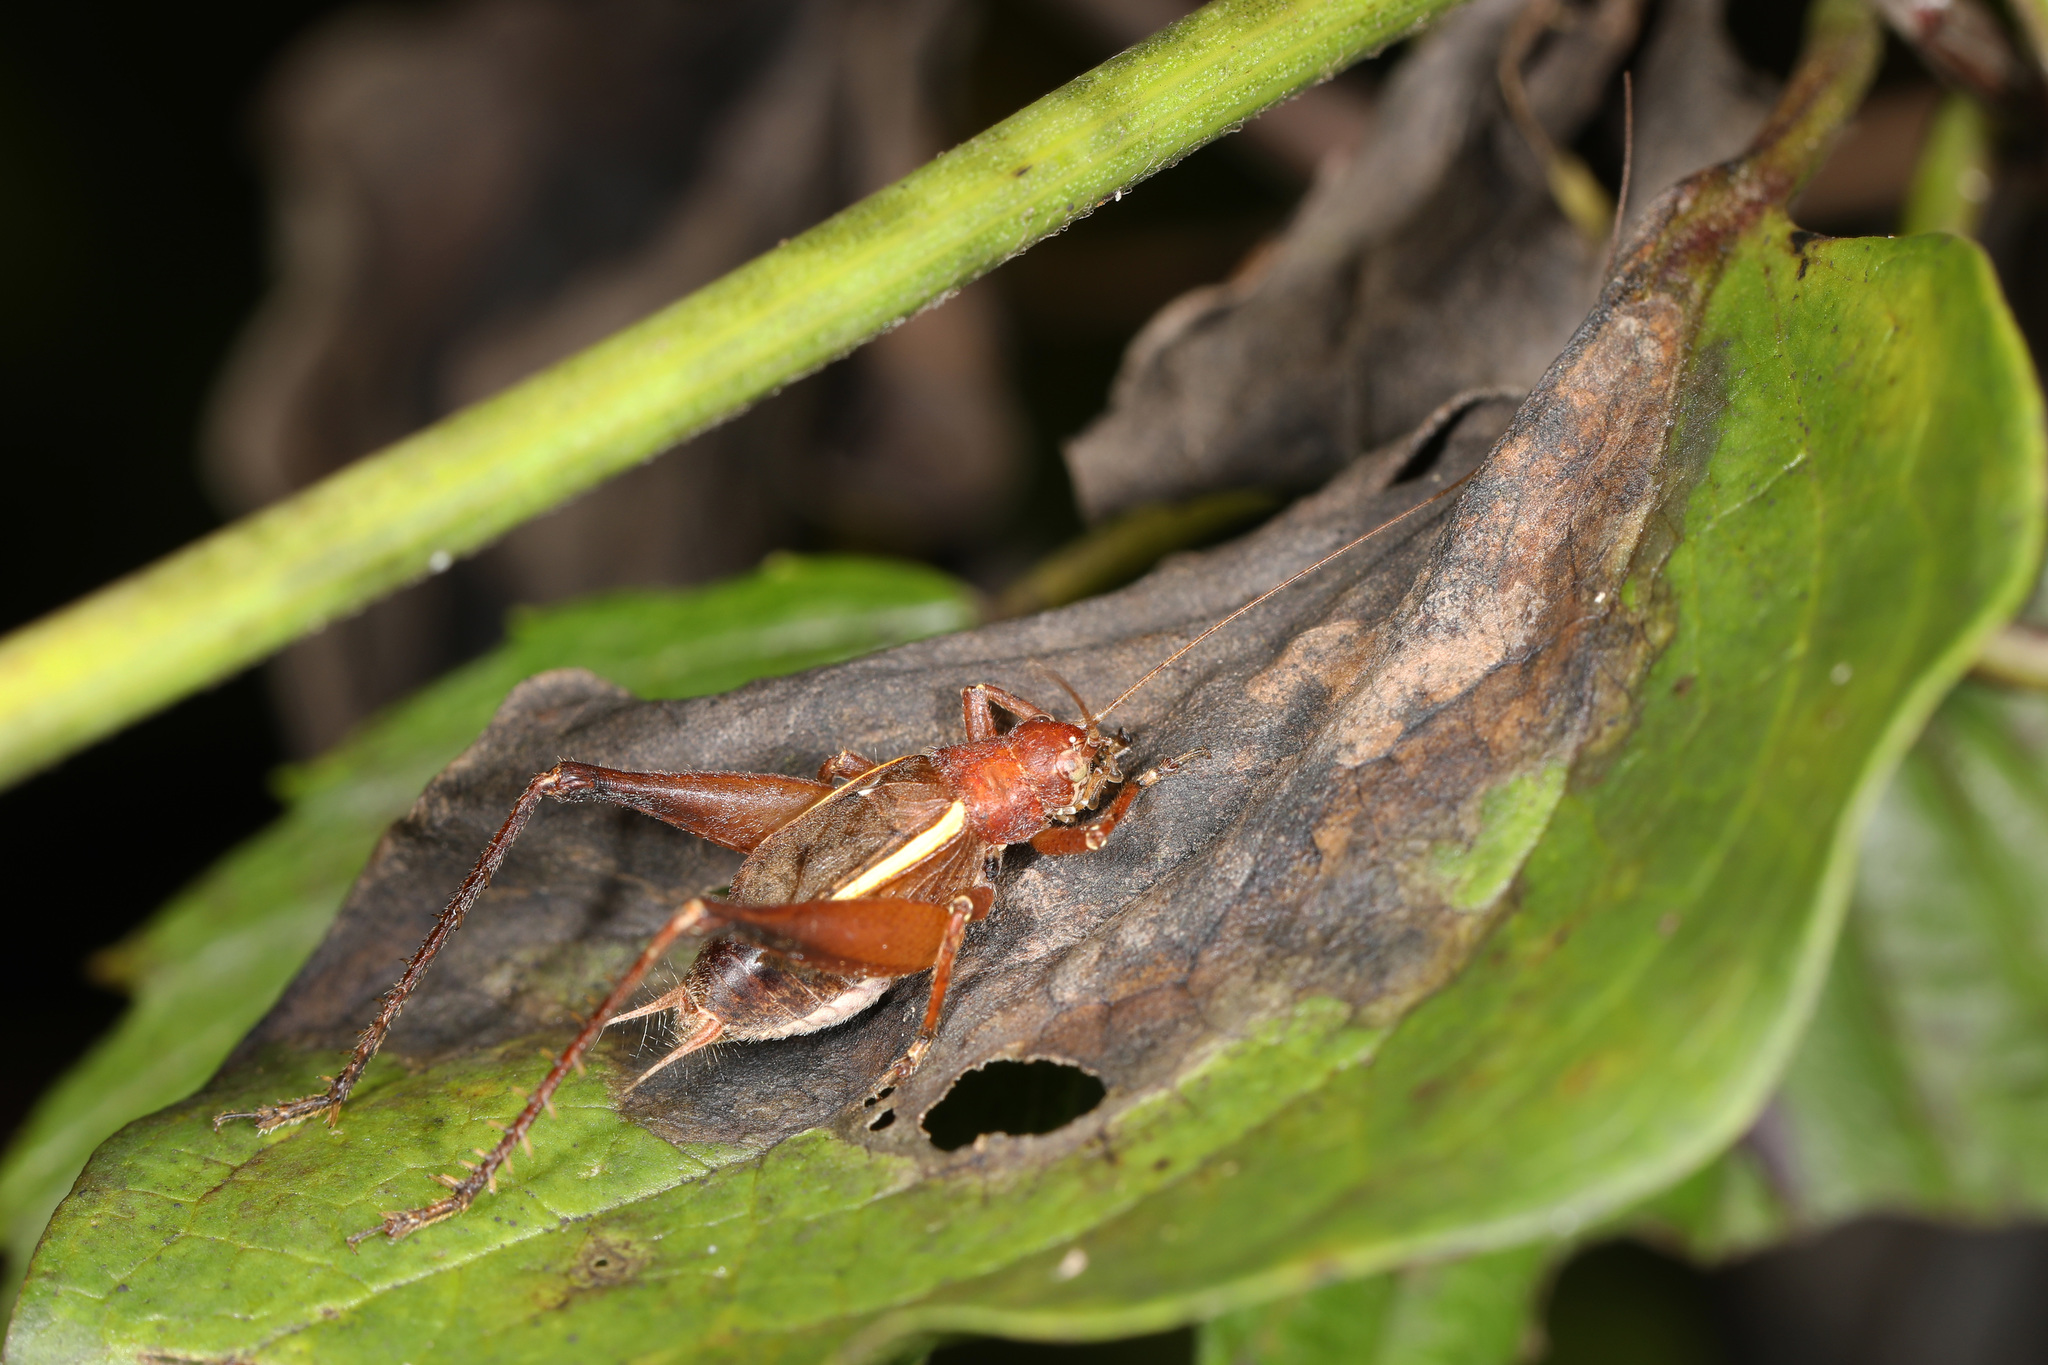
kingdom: Animalia
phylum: Arthropoda
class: Insecta
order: Orthoptera
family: Gryllidae
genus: Hapithus
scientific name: Hapithus agitator
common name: Restless bush cricket
